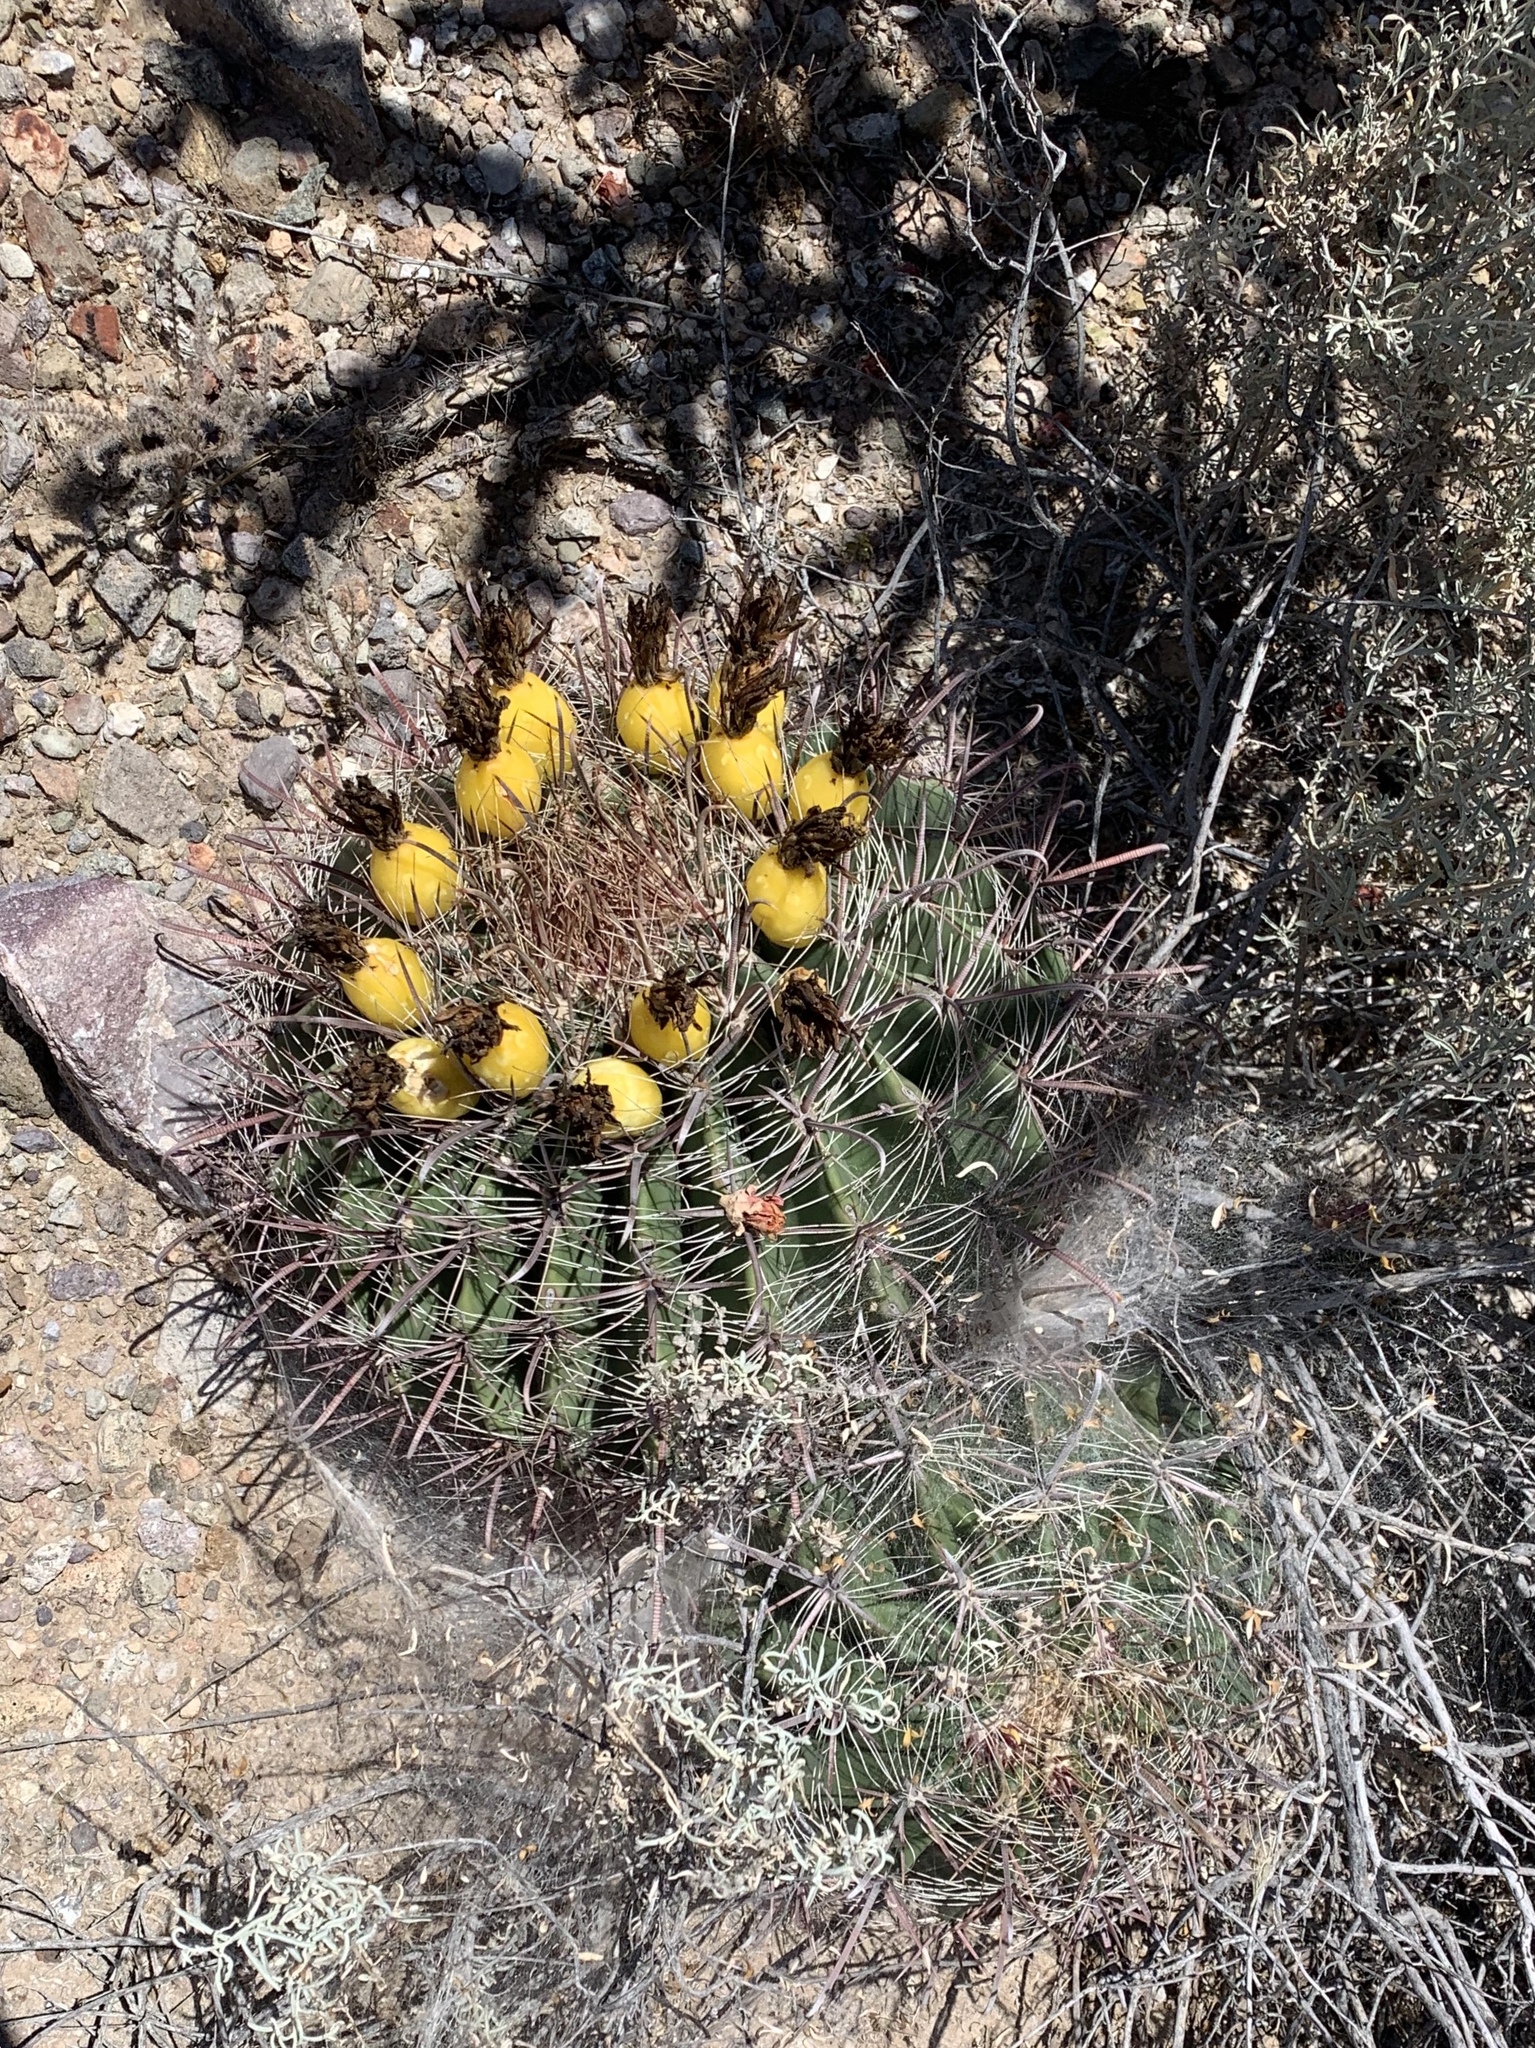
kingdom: Plantae
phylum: Tracheophyta
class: Magnoliopsida
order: Caryophyllales
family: Cactaceae
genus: Ferocactus
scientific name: Ferocactus wislizeni
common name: Candy barrel cactus
